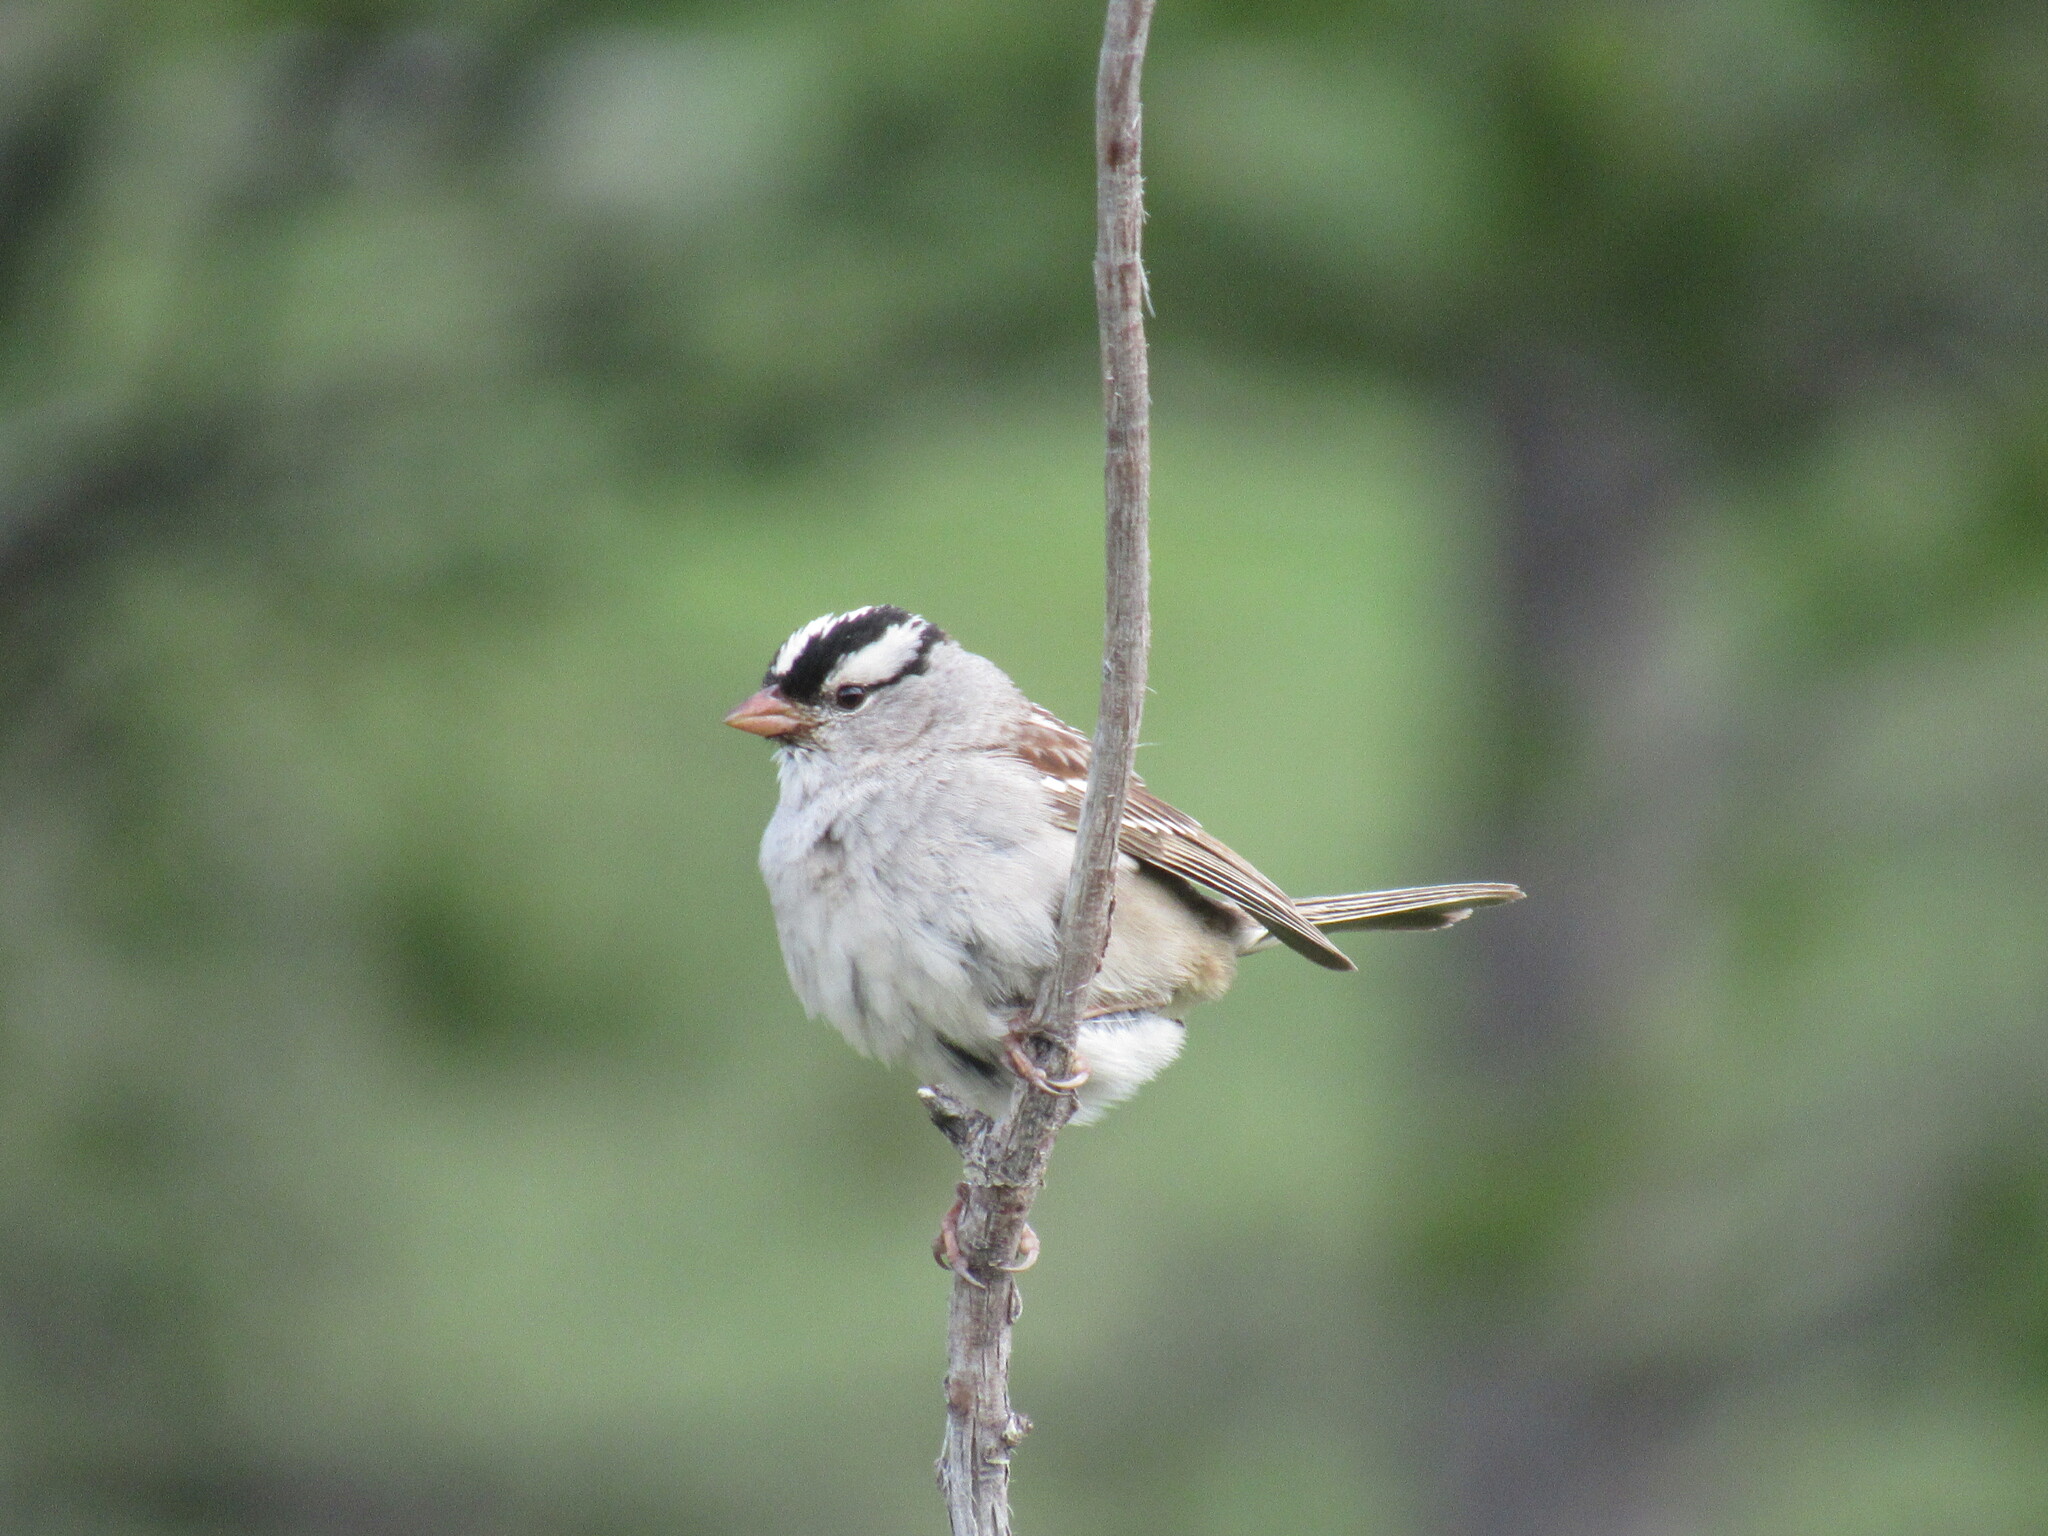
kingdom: Animalia
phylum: Chordata
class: Aves
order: Passeriformes
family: Passerellidae
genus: Zonotrichia
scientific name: Zonotrichia leucophrys
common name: White-crowned sparrow
